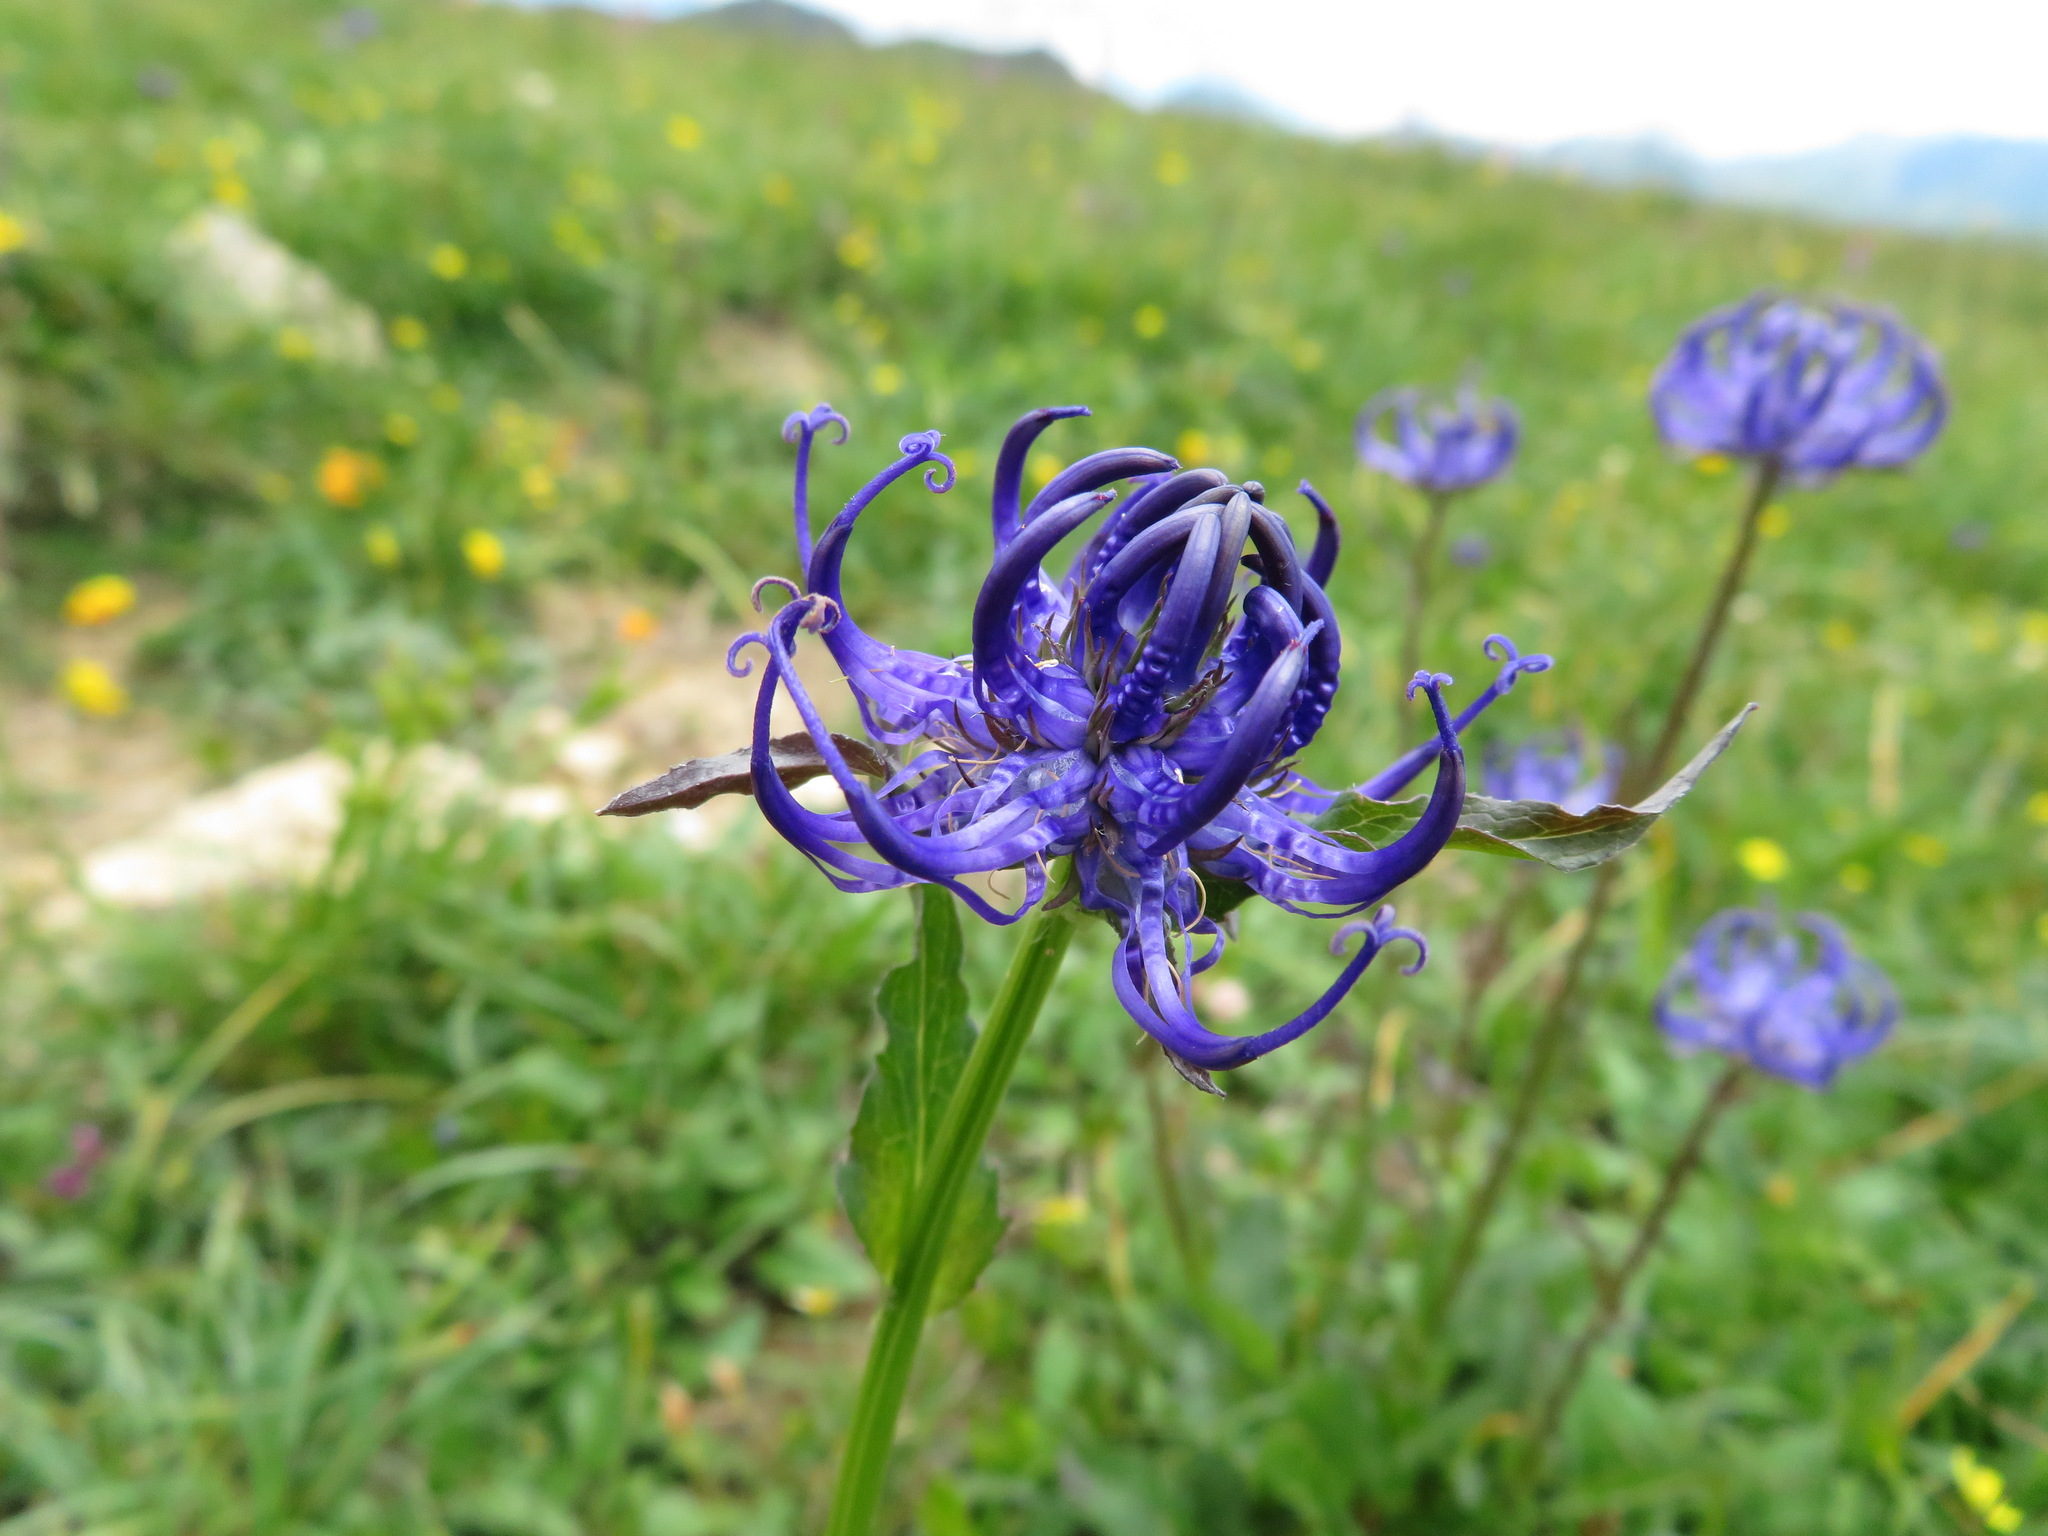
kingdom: Plantae
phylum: Tracheophyta
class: Magnoliopsida
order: Asterales
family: Campanulaceae
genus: Phyteuma
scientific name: Phyteuma orbiculare
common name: Round-headed rampion
